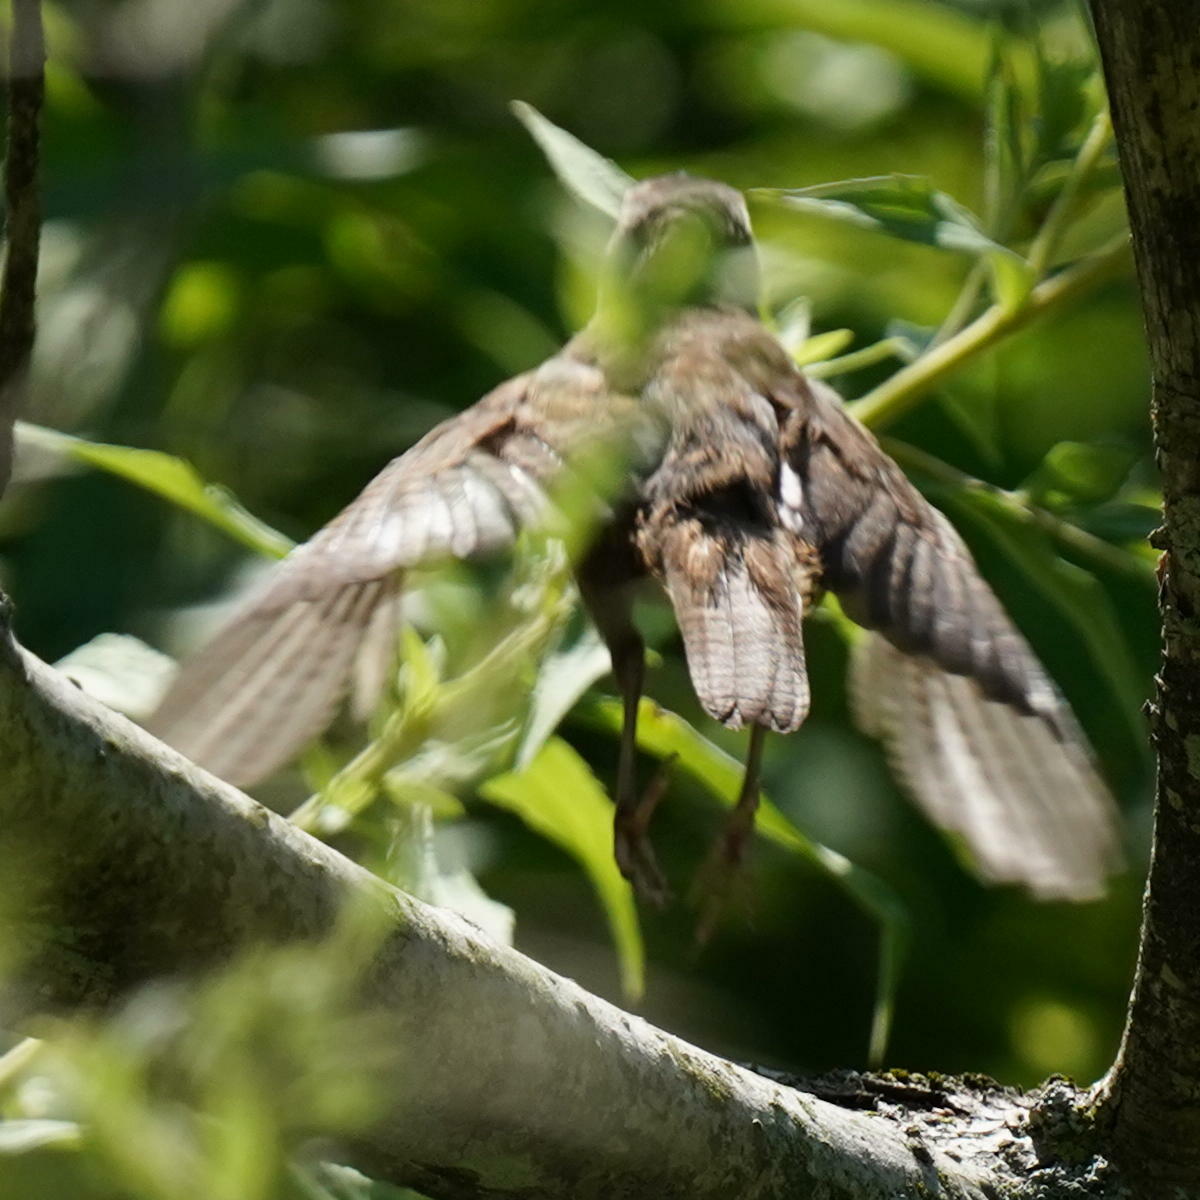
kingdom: Animalia
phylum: Chordata
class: Aves
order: Passeriformes
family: Troglodytidae
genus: Troglodytes
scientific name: Troglodytes aedon
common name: House wren
